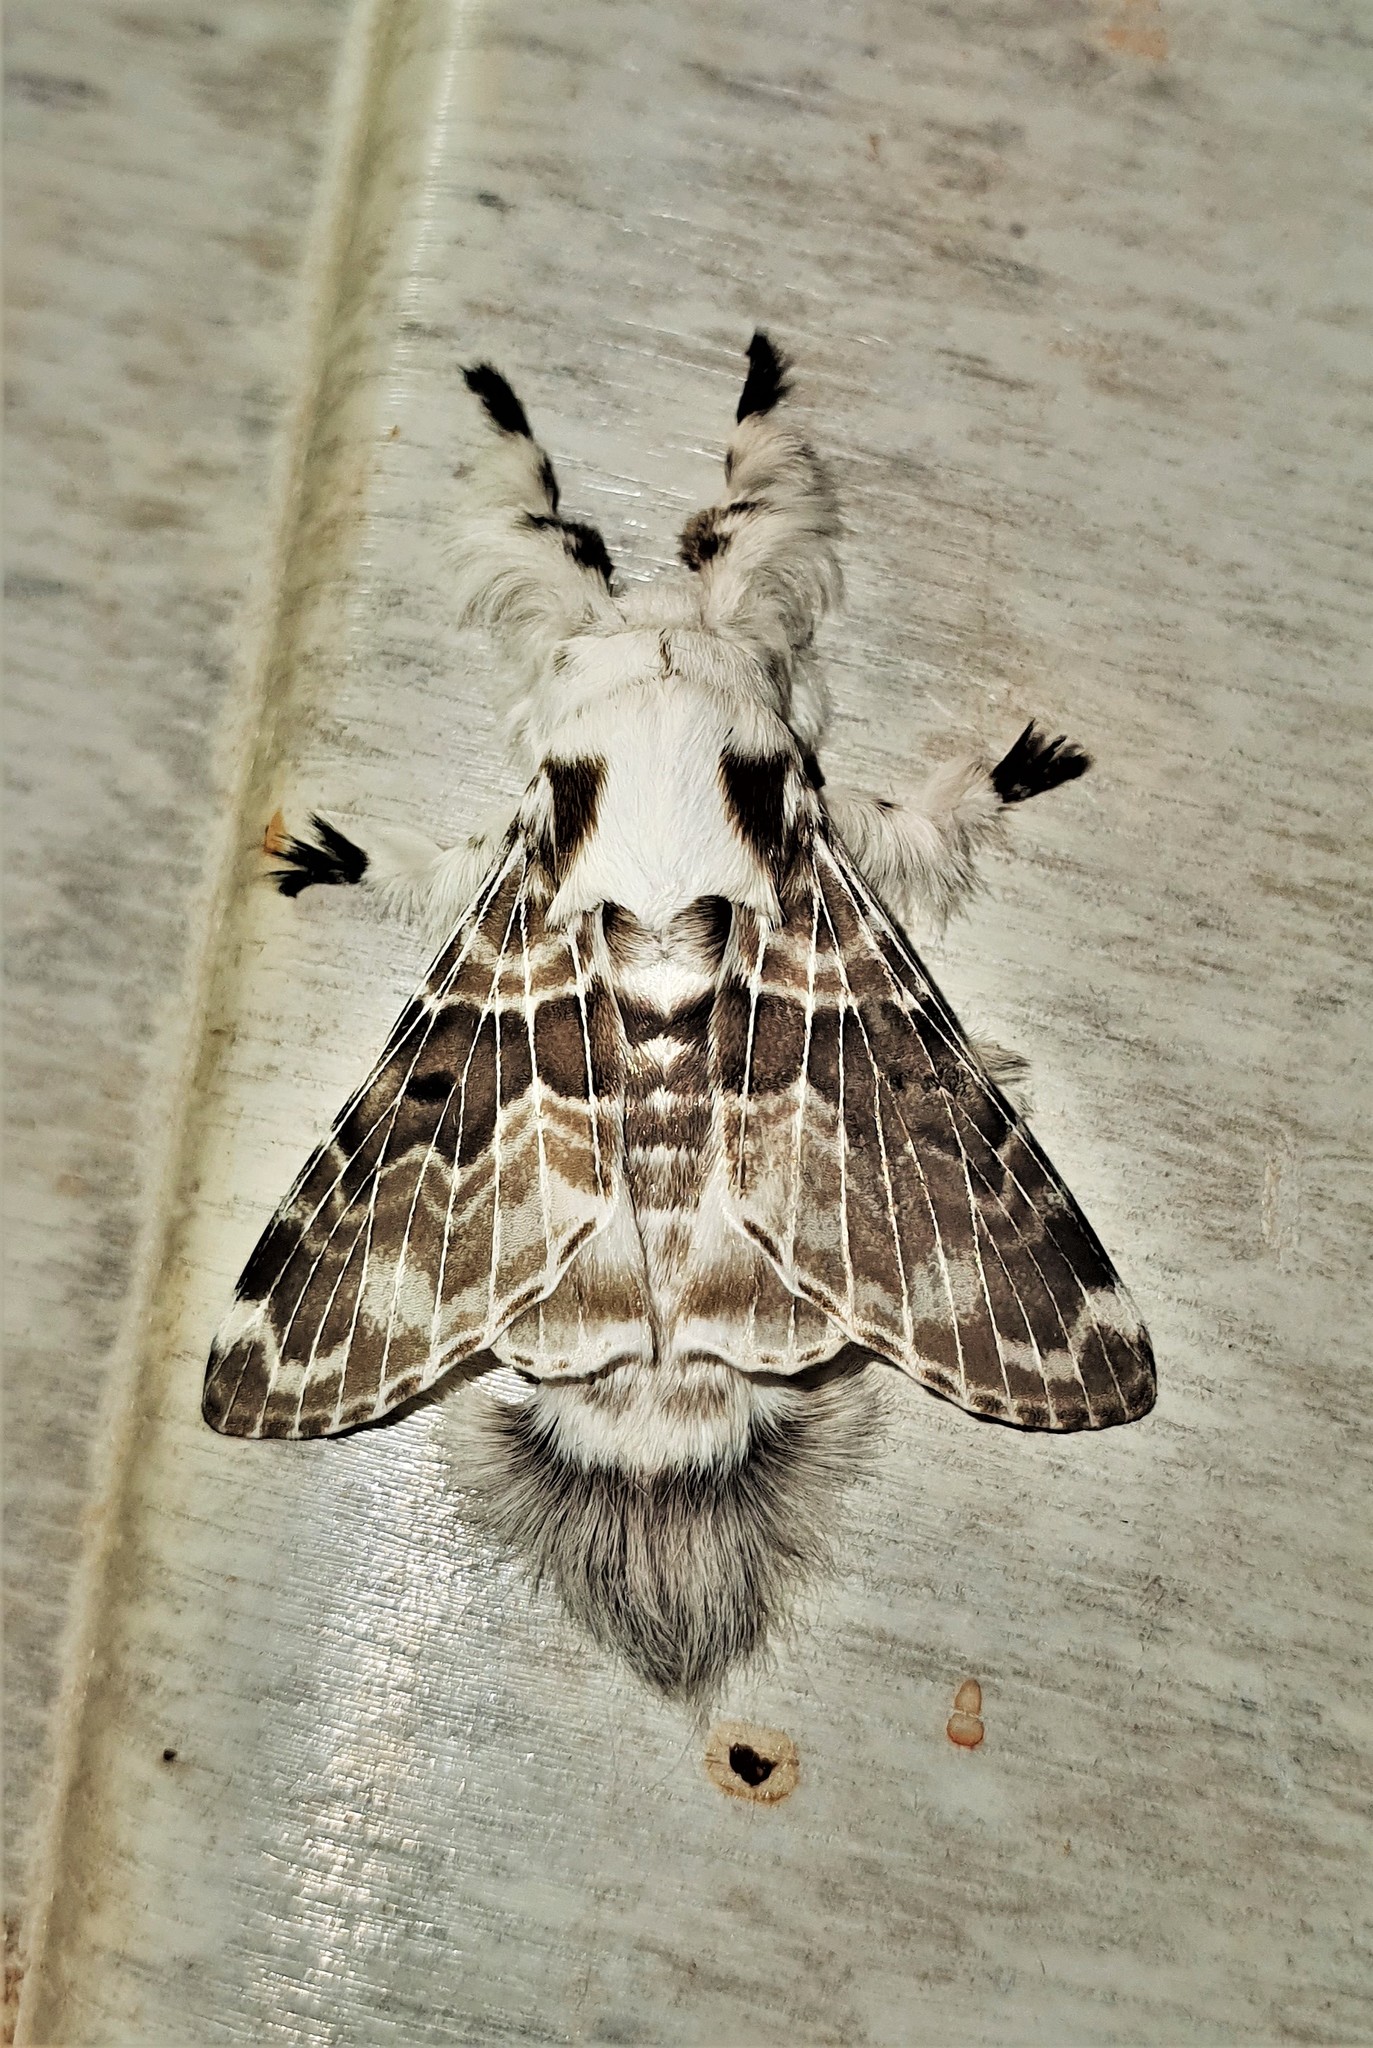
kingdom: Animalia
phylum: Arthropoda
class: Insecta
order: Lepidoptera
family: Lasiocampidae
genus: Tolype
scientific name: Tolype caieta
